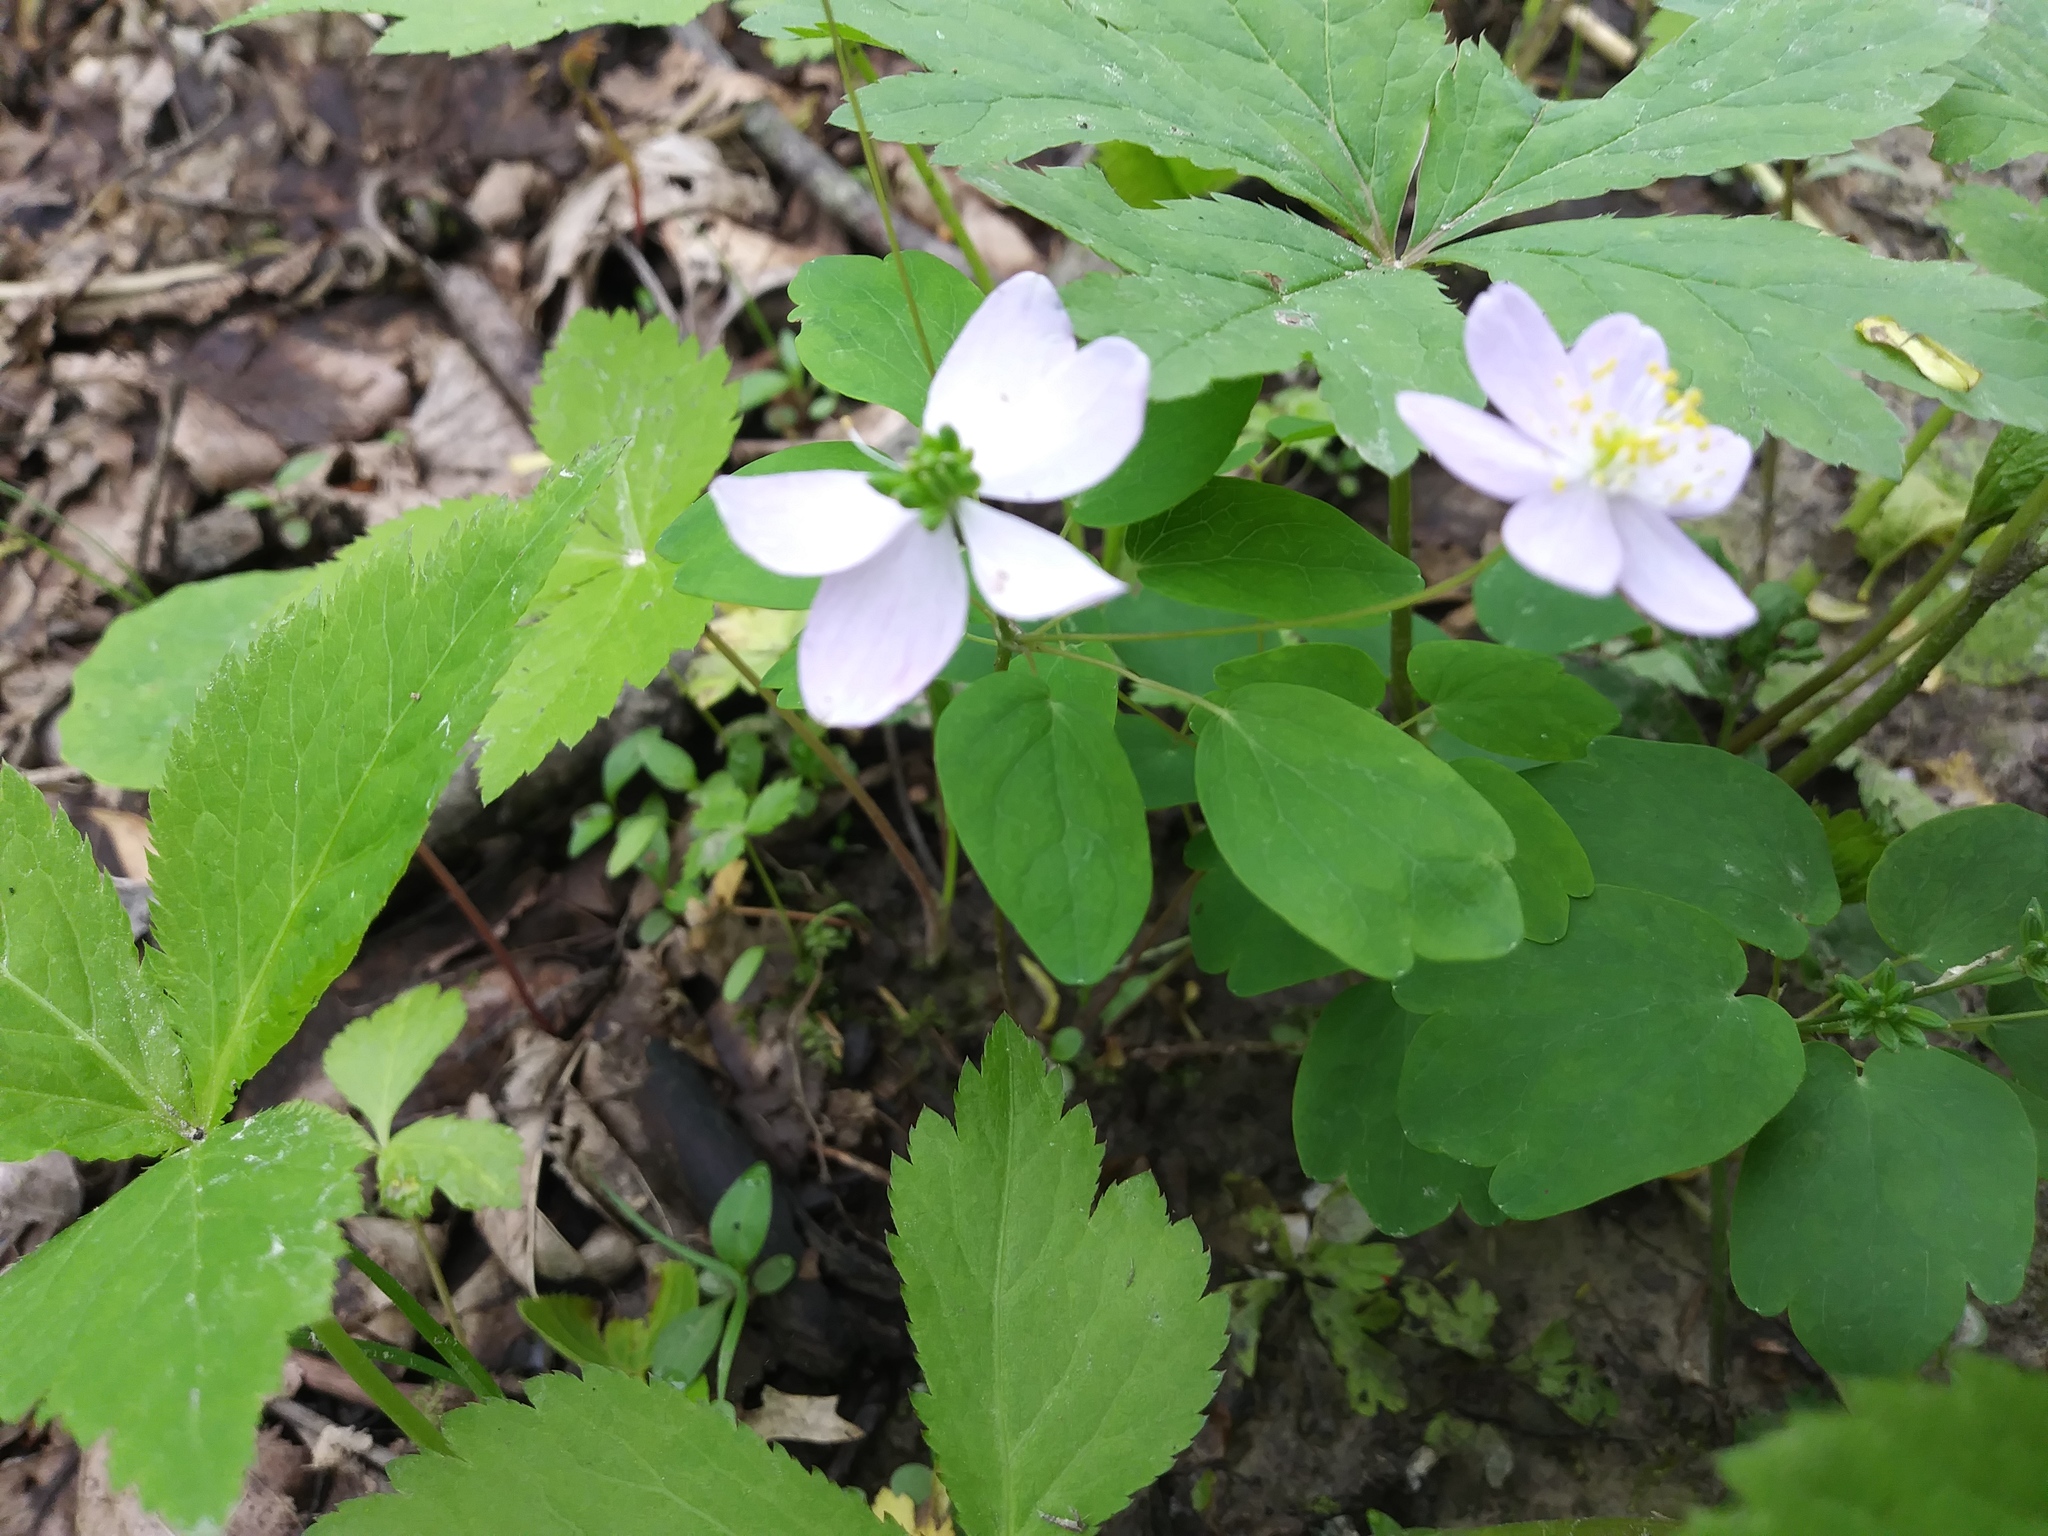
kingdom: Plantae
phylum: Tracheophyta
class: Magnoliopsida
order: Ranunculales
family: Ranunculaceae
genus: Thalictrum
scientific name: Thalictrum thalictroides
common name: Rue-anemone
